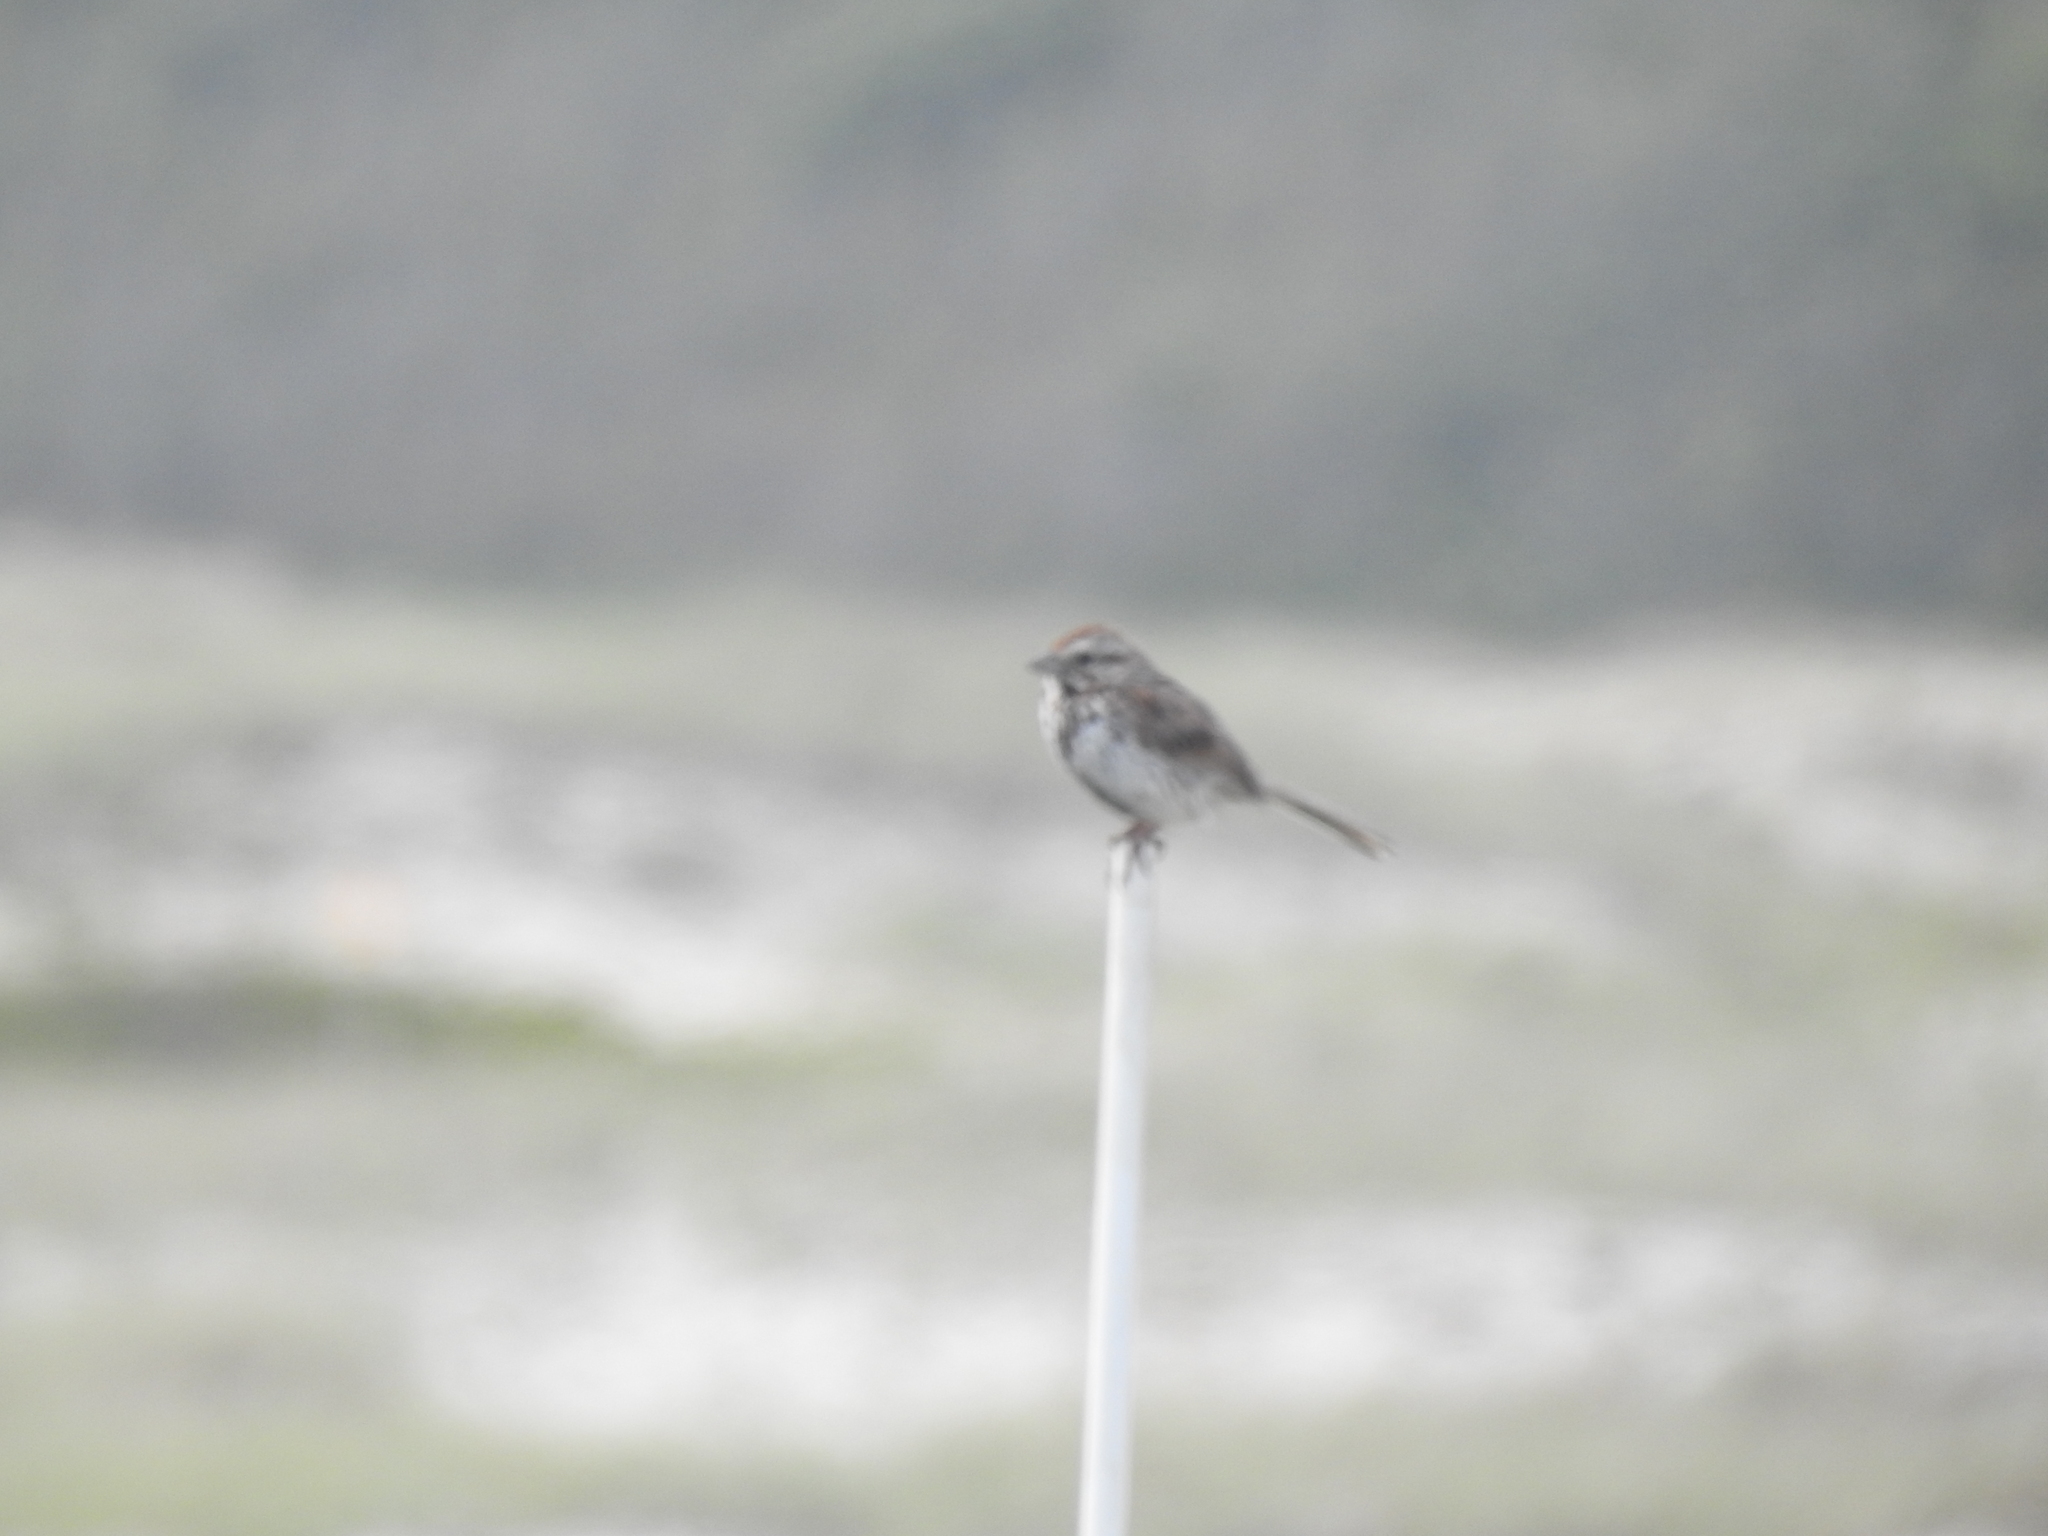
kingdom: Animalia
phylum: Chordata
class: Aves
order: Passeriformes
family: Passerellidae
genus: Melospiza
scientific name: Melospiza melodia
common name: Song sparrow
